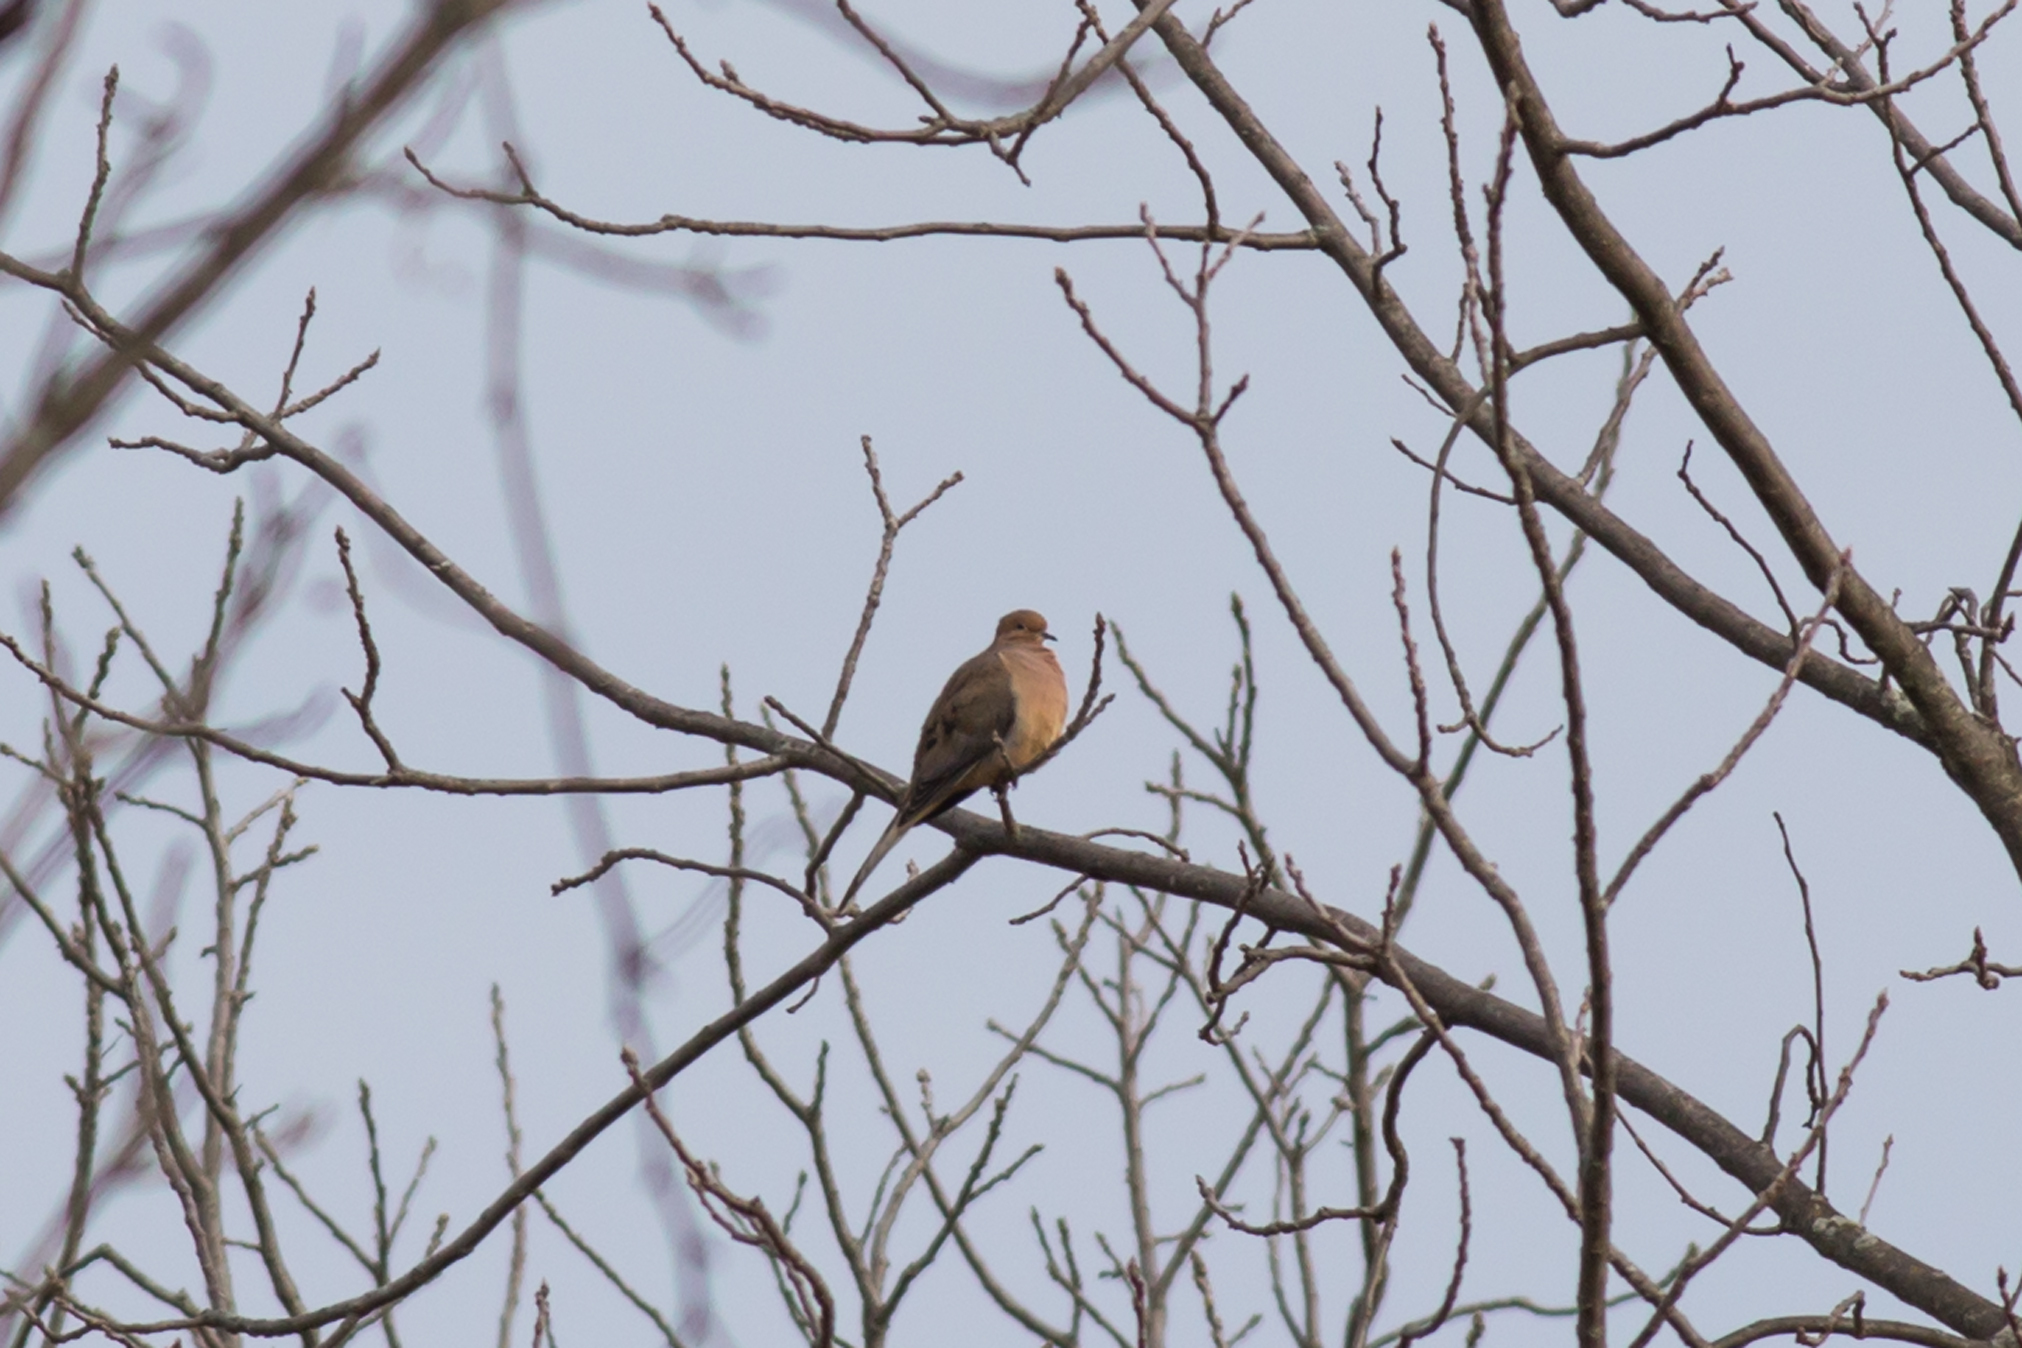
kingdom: Animalia
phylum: Chordata
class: Aves
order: Columbiformes
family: Columbidae
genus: Zenaida
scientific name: Zenaida macroura
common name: Mourning dove
